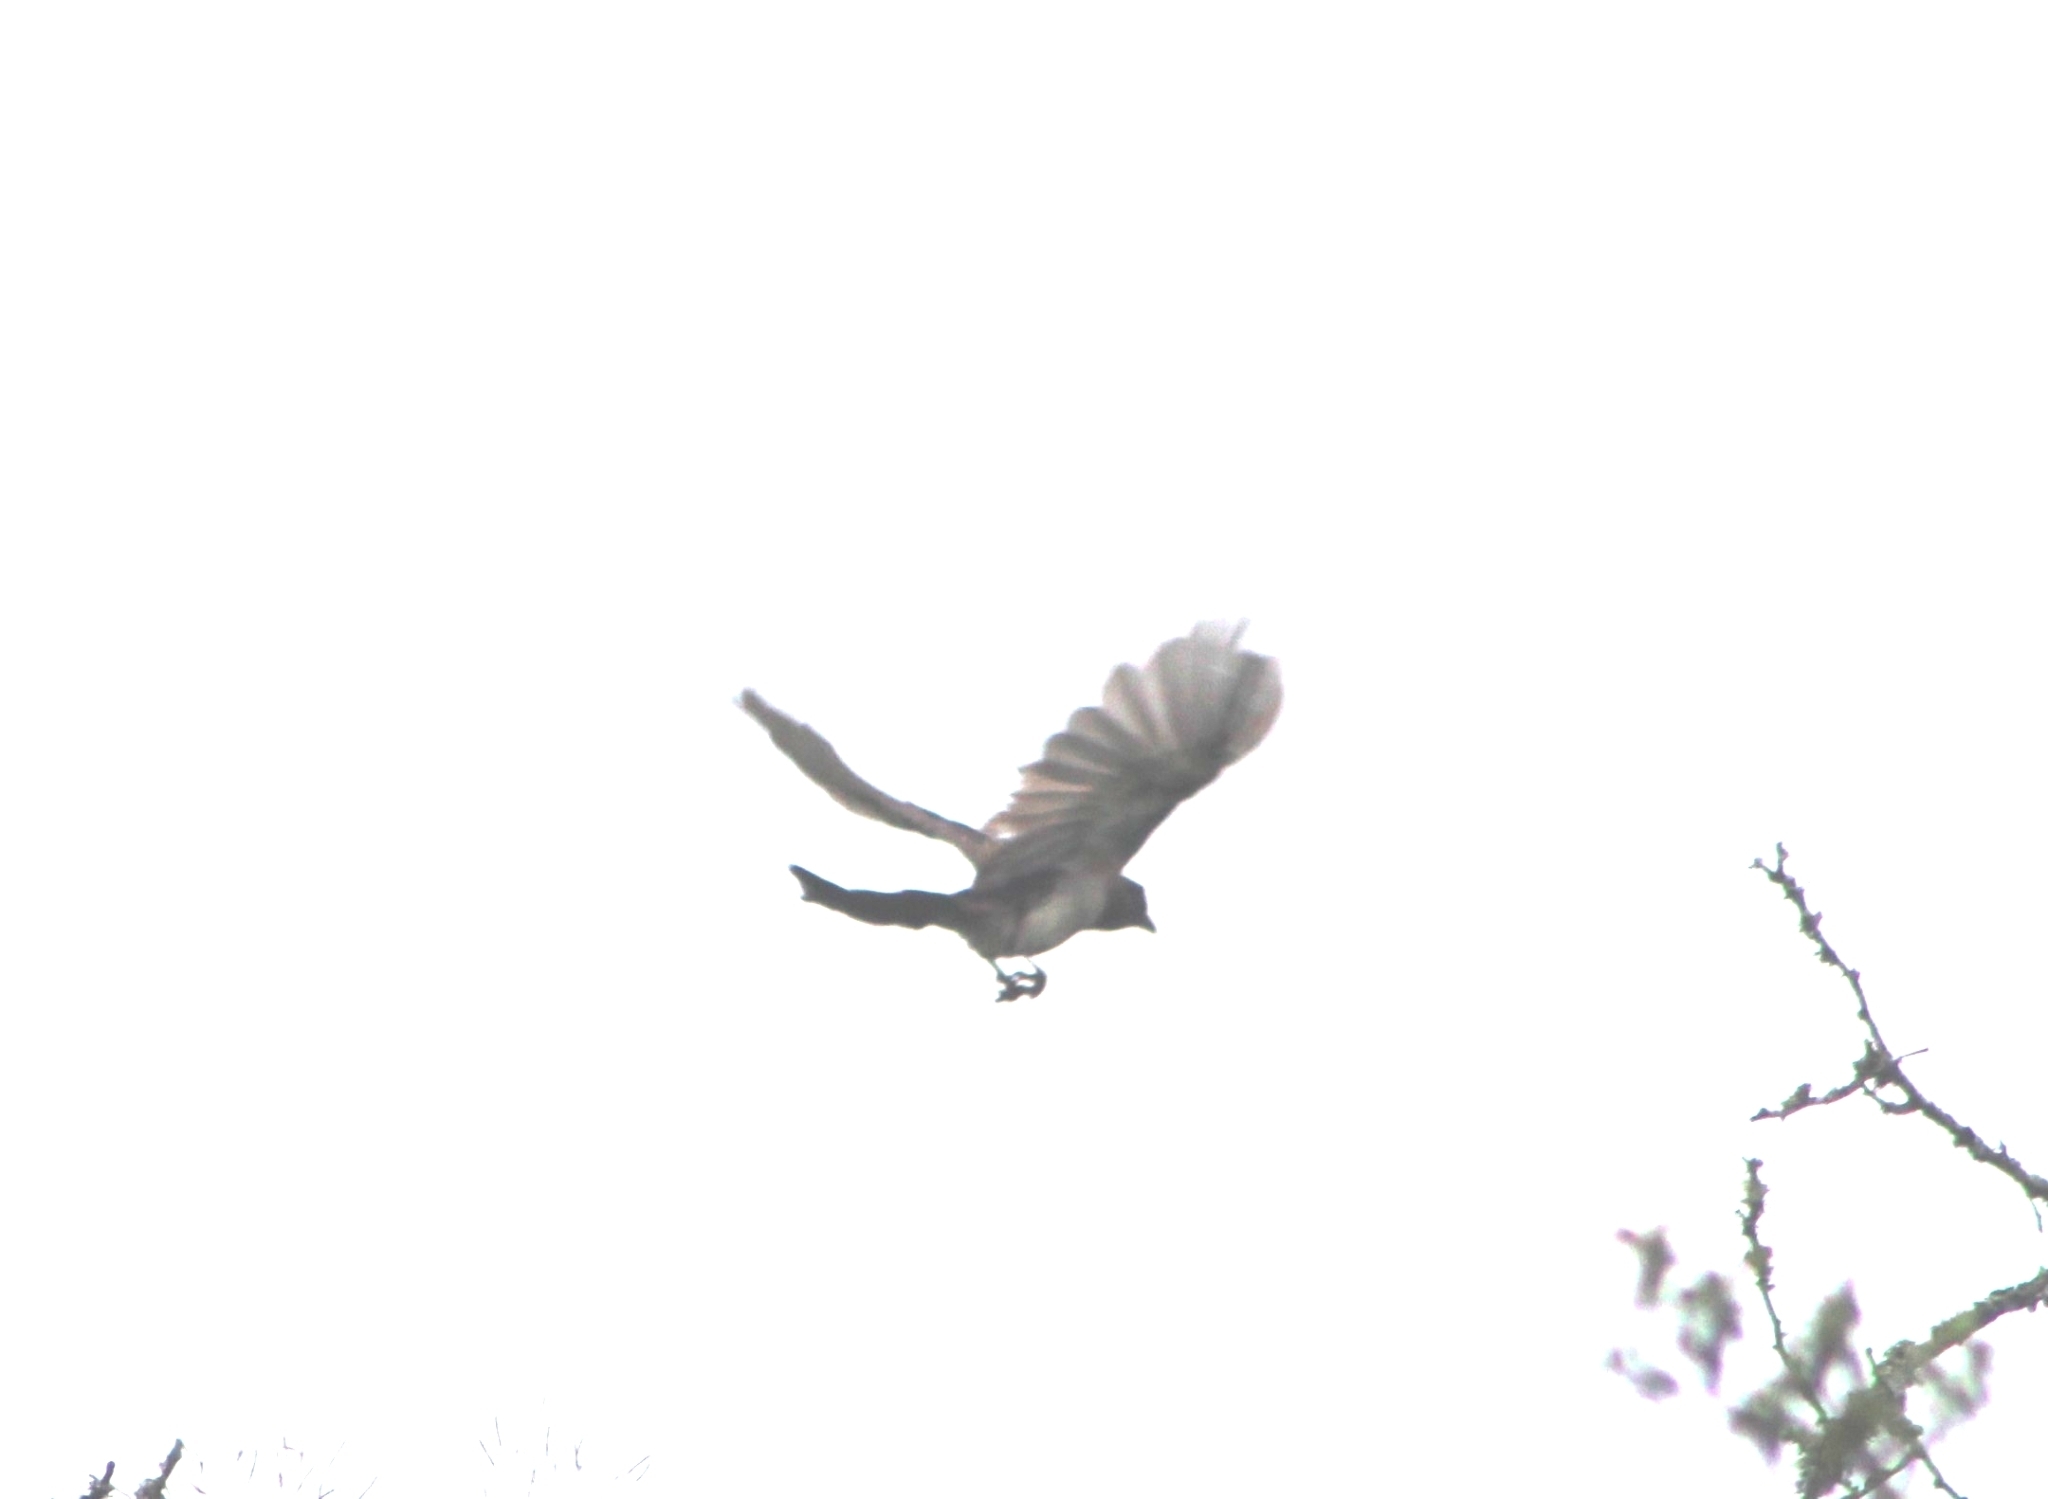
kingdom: Animalia
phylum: Chordata
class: Aves
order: Passeriformes
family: Corvidae
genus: Psilorhinus
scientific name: Psilorhinus morio
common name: Brown jay
